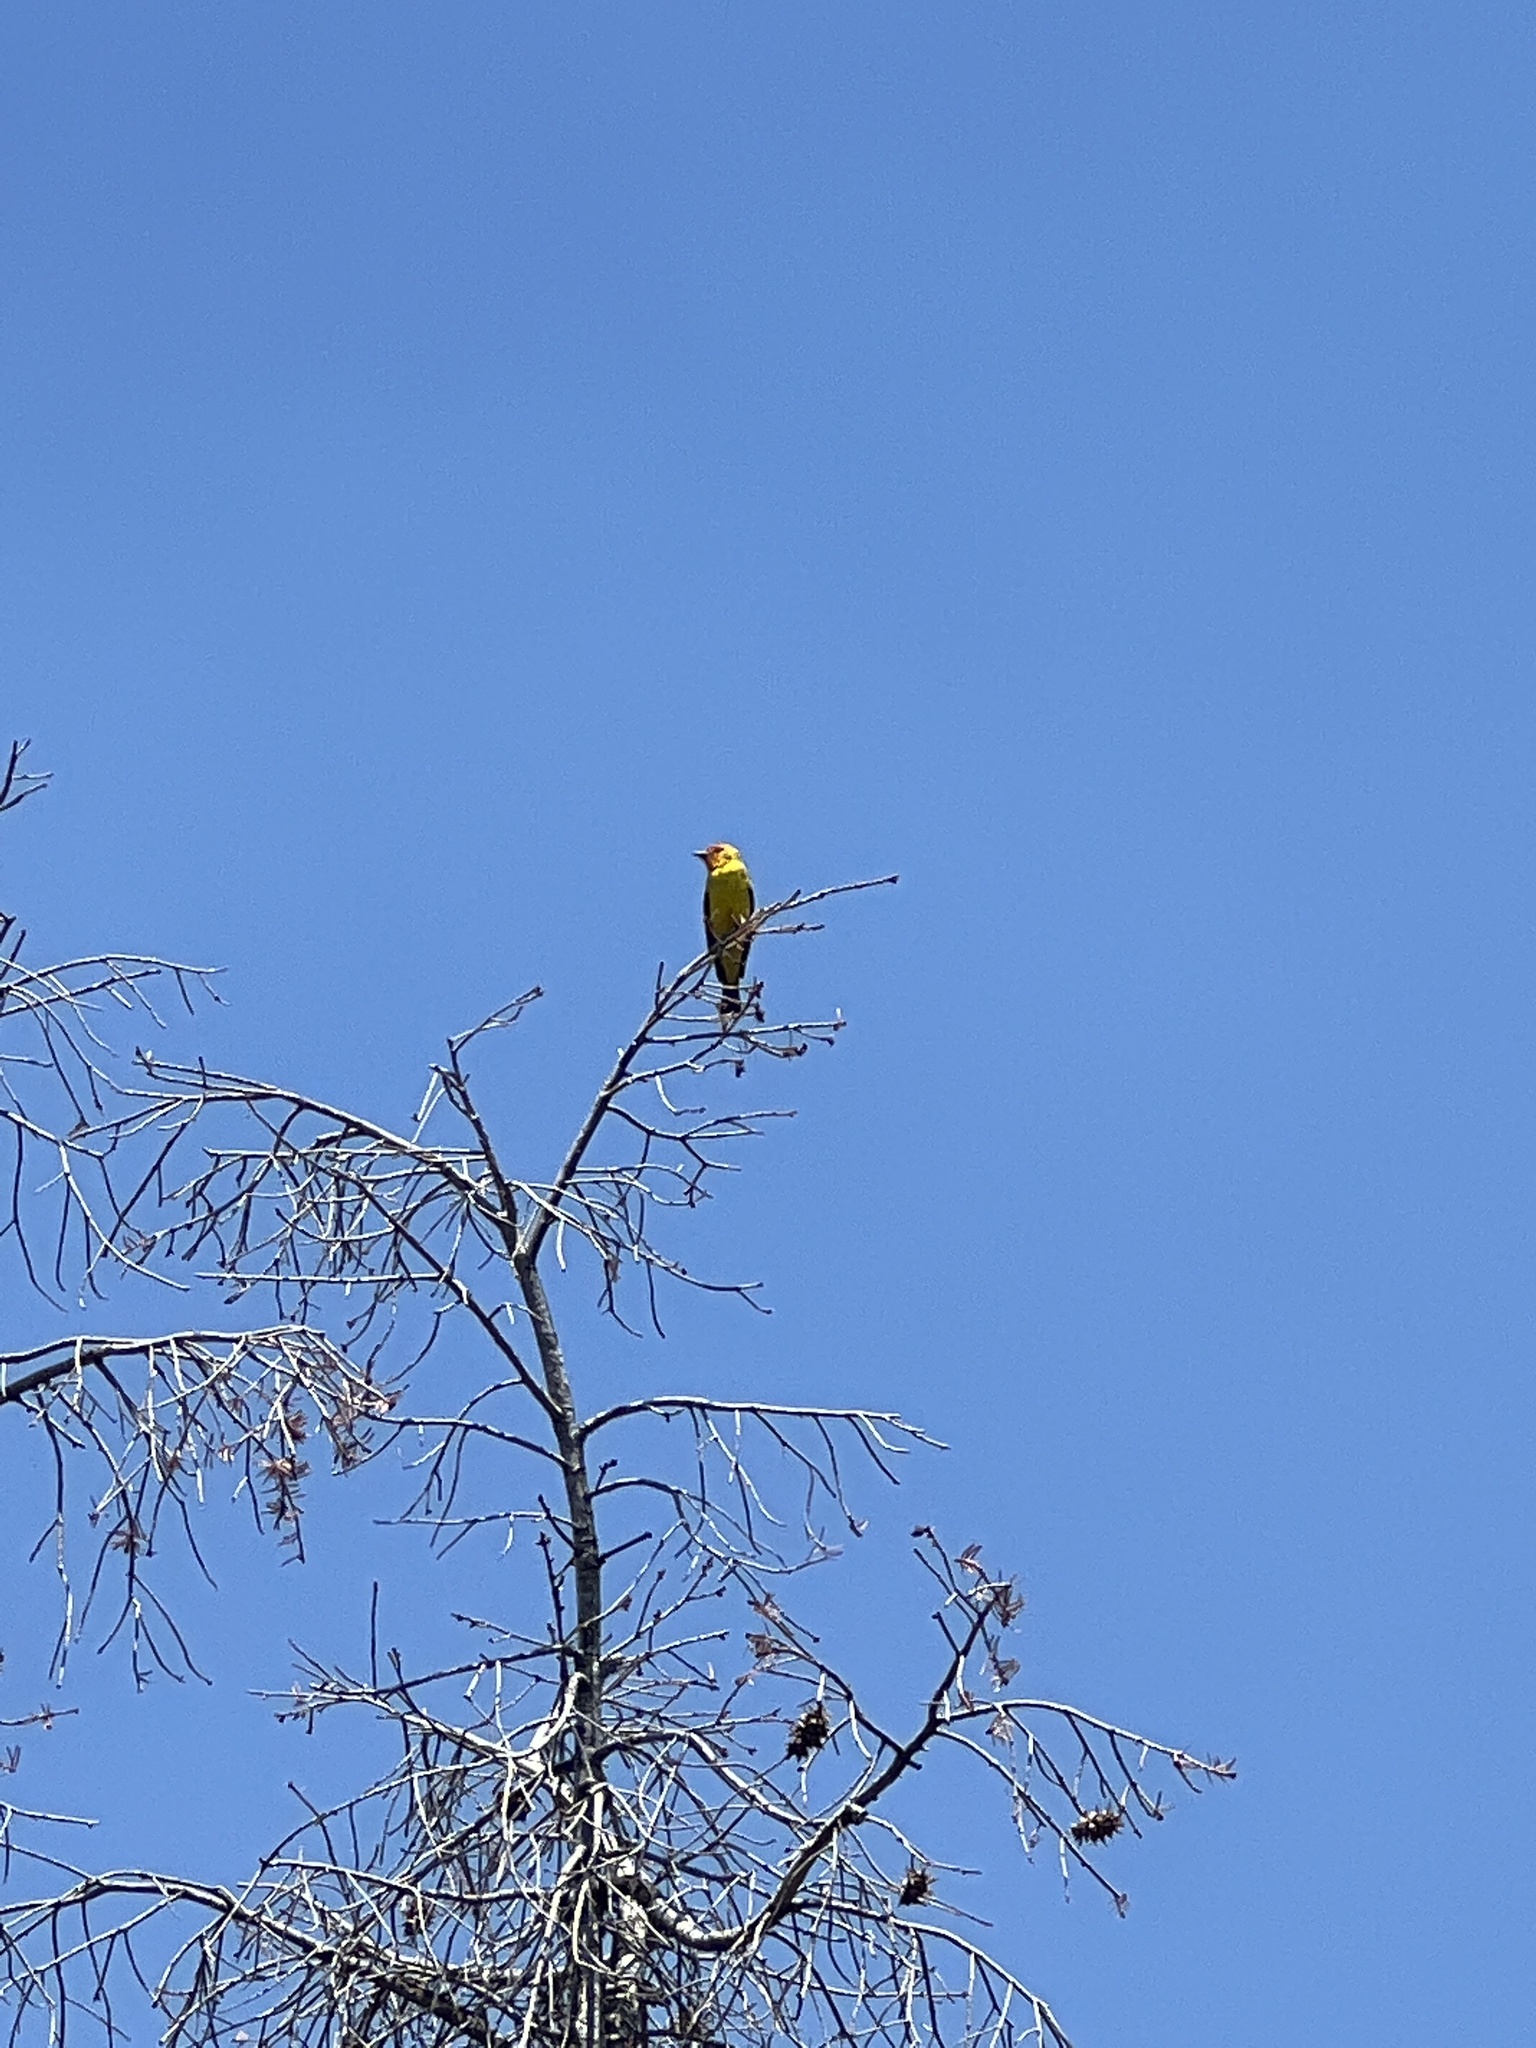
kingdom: Animalia
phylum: Chordata
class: Aves
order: Passeriformes
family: Cardinalidae
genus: Piranga
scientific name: Piranga ludoviciana
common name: Western tanager
